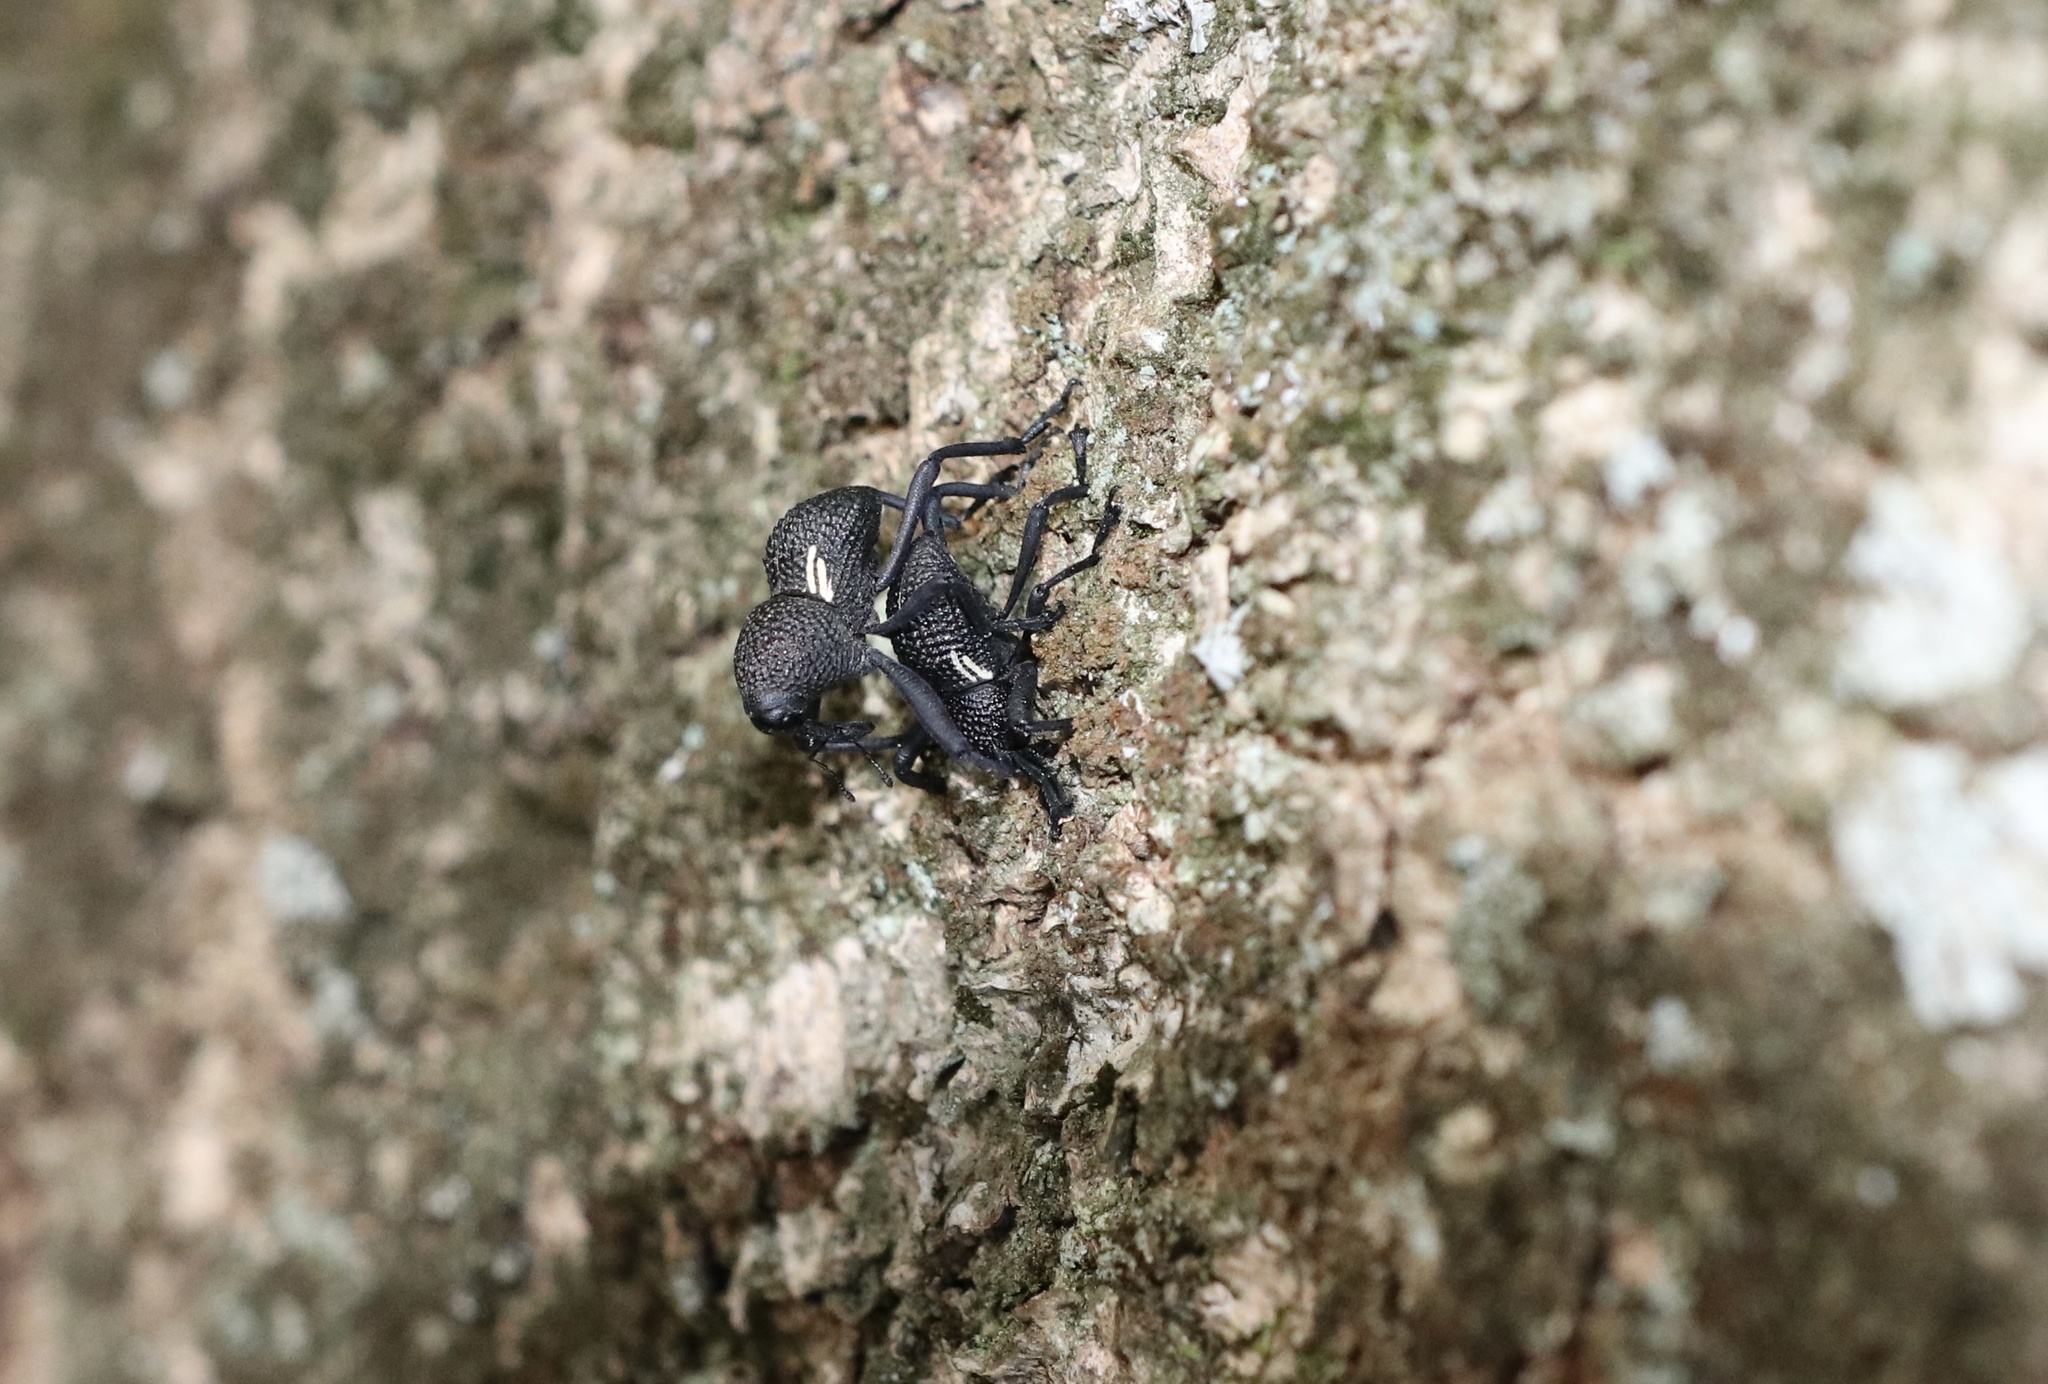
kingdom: Animalia
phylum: Arthropoda
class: Insecta
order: Coleoptera
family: Curculionidae
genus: Rhyephenes
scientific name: Rhyephenes humeralis
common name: Araè±ita chilena del pino
